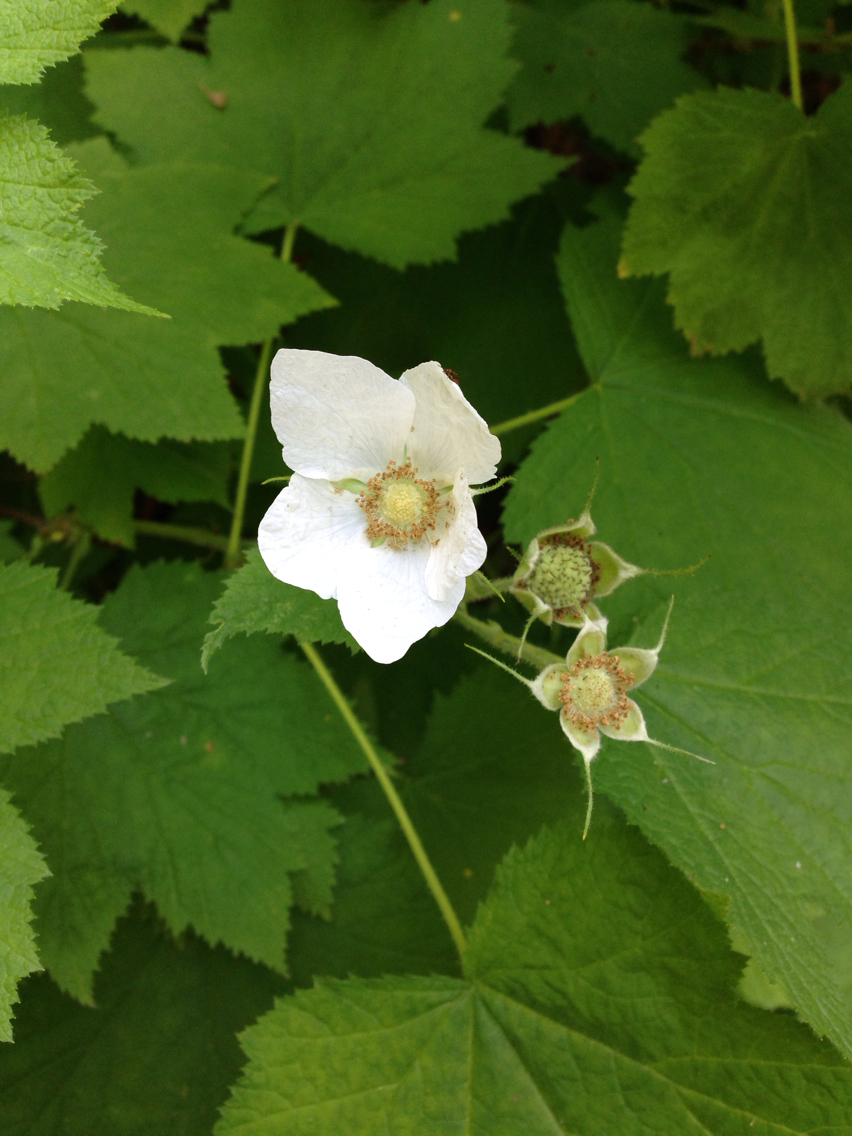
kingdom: Plantae
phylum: Tracheophyta
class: Magnoliopsida
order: Rosales
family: Rosaceae
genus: Rubus
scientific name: Rubus parviflorus
